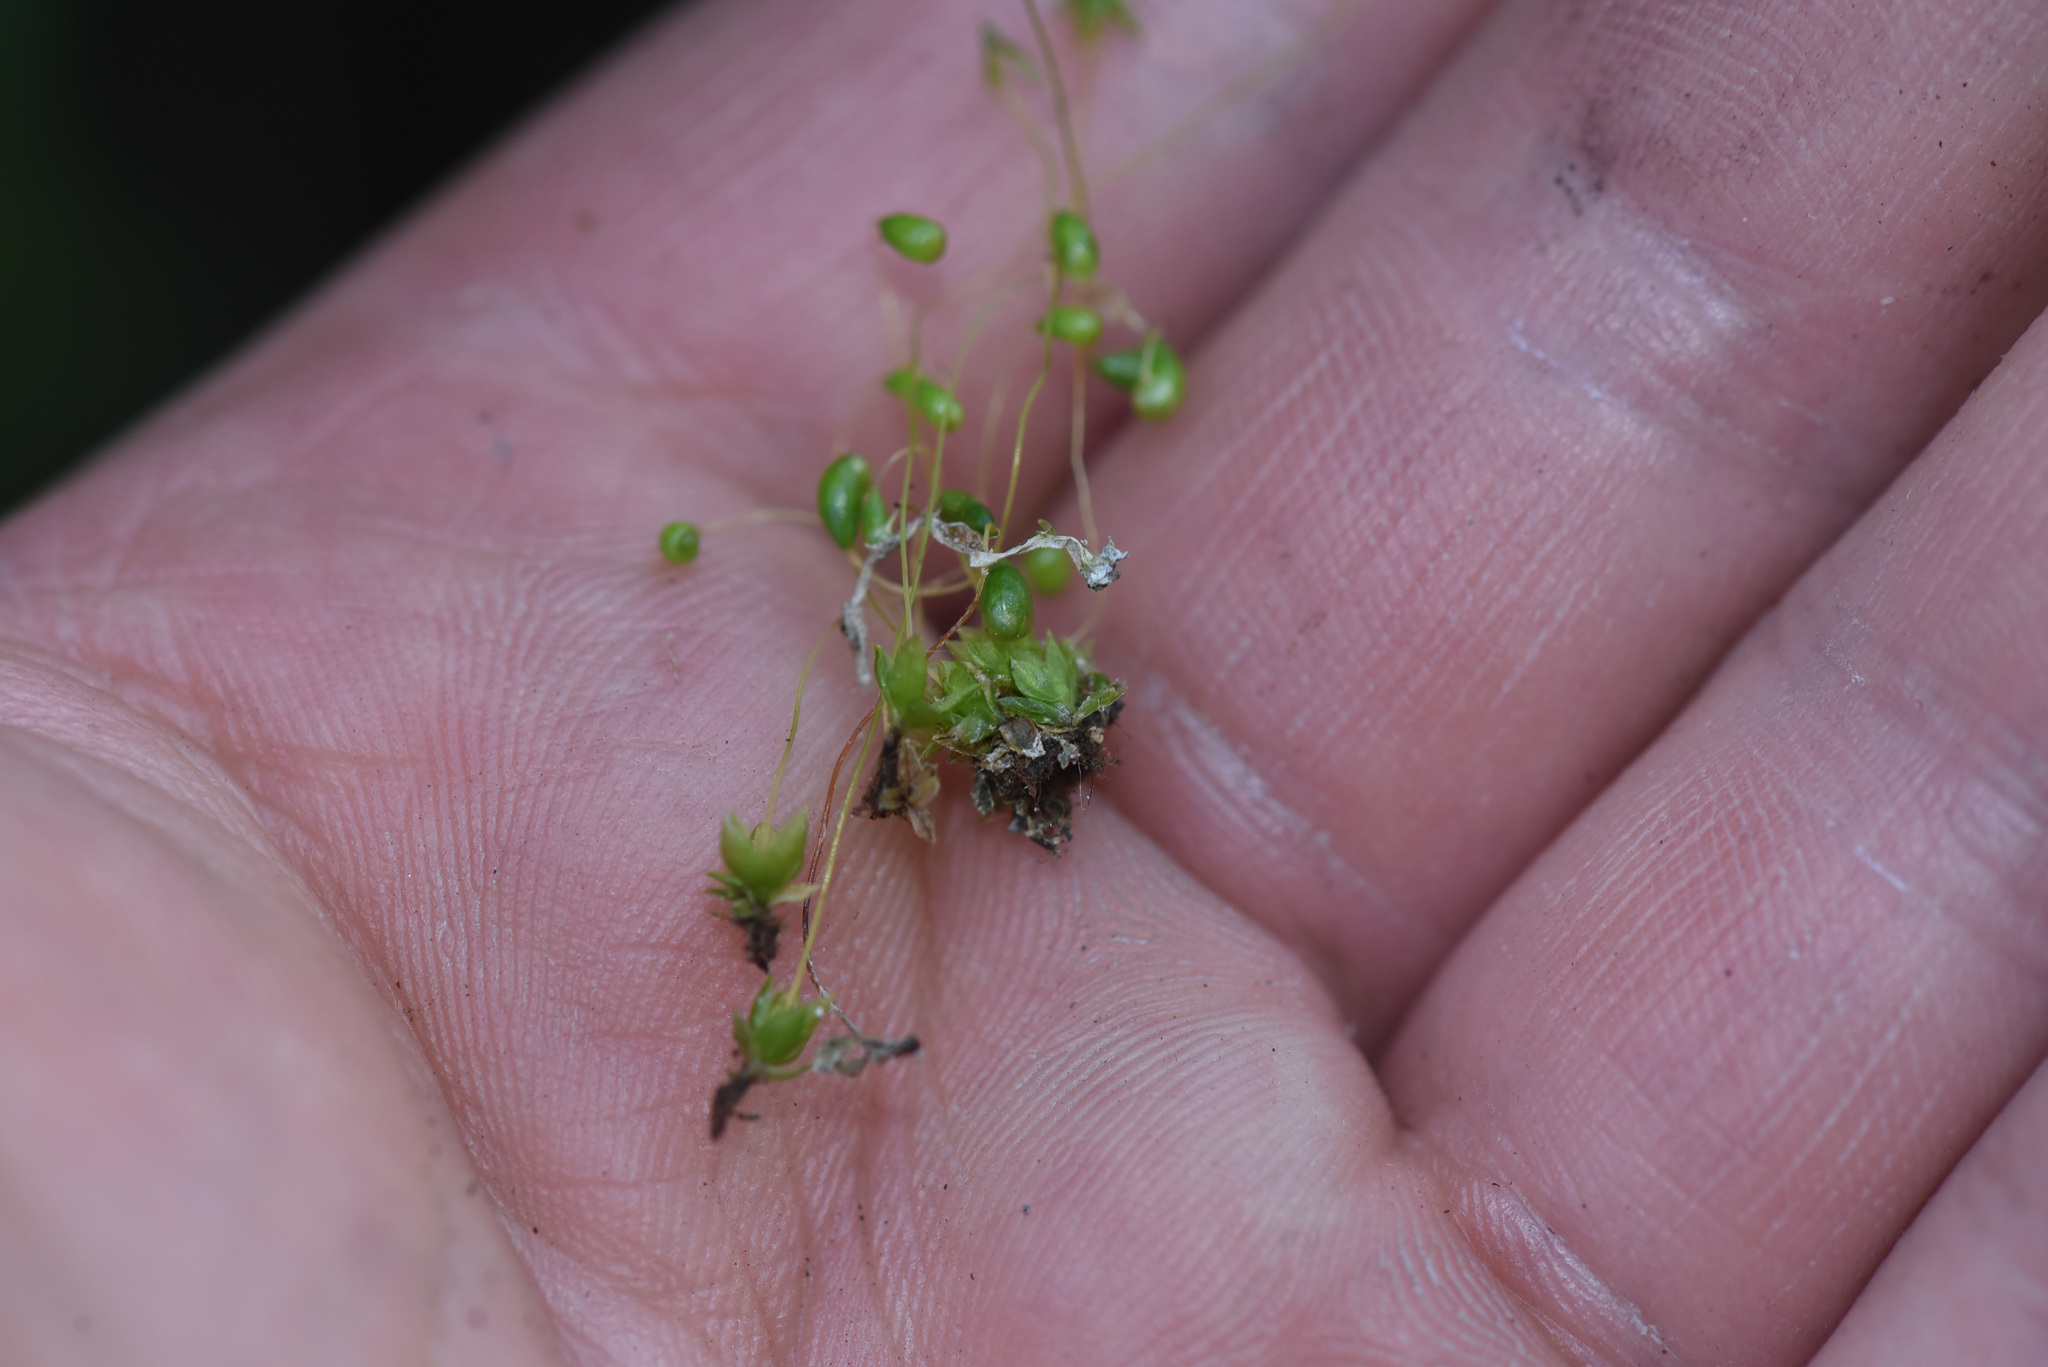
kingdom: Plantae
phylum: Bryophyta
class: Bryopsida
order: Funariales
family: Funariaceae
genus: Funaria
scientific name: Funaria hygrometrica
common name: Common cord moss
